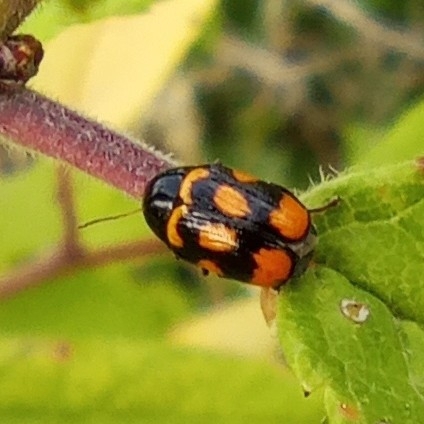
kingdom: Animalia
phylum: Arthropoda
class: Insecta
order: Coleoptera
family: Chrysomelidae
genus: Cryptocephalus
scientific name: Cryptocephalus anticus
